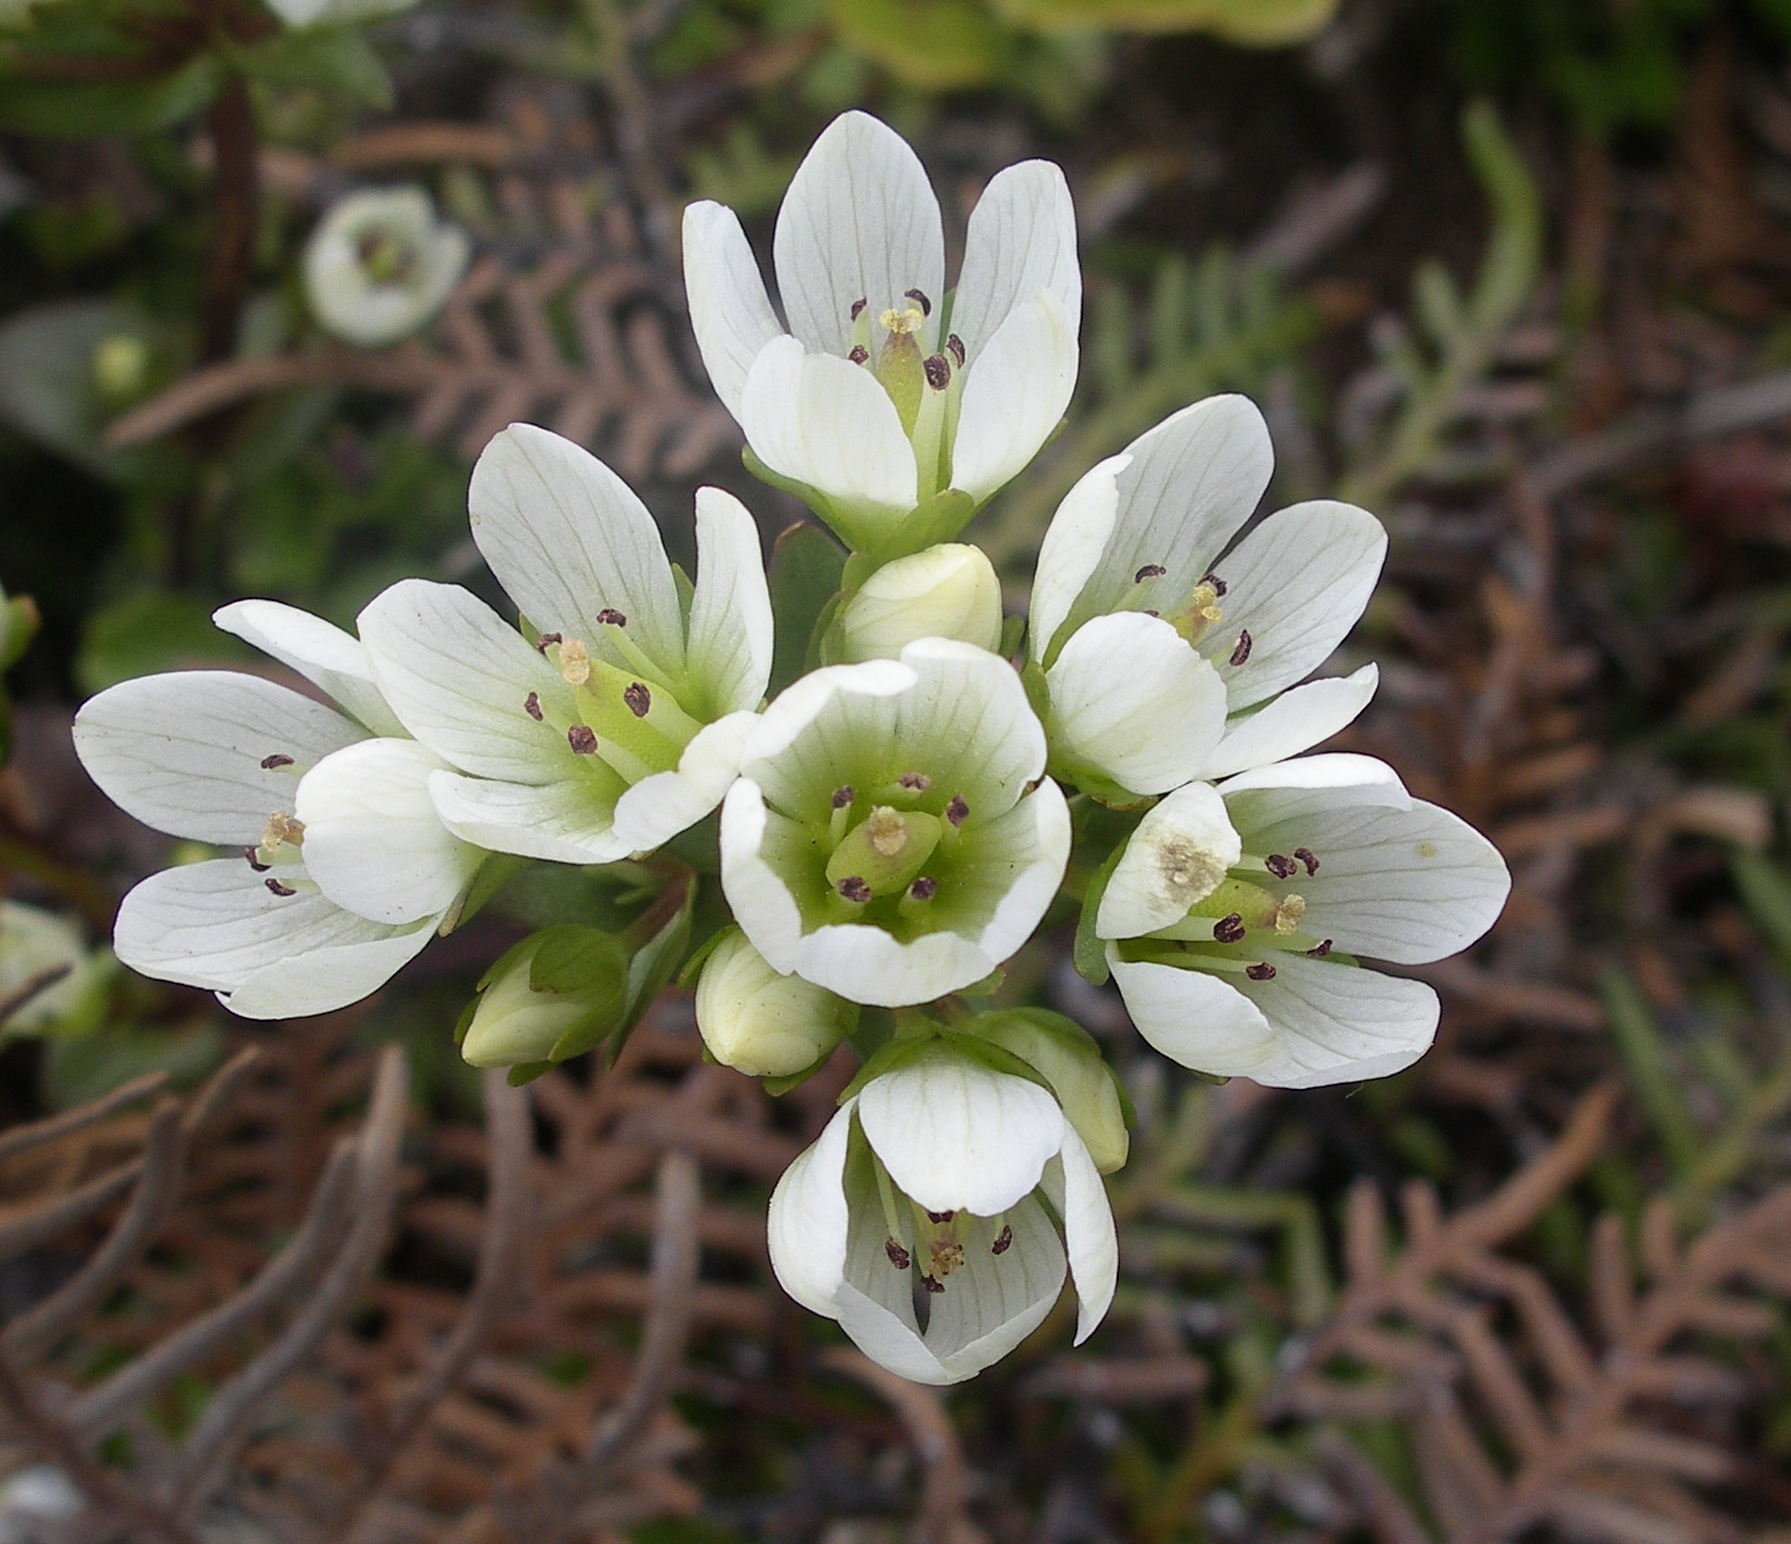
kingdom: Plantae
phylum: Tracheophyta
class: Magnoliopsida
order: Gentianales
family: Gentianaceae
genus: Gentianella
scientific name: Gentianella chathamica
